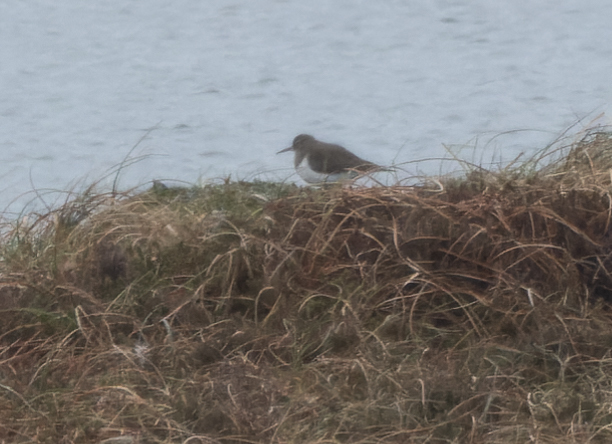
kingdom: Animalia
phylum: Chordata
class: Aves
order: Charadriiformes
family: Scolopacidae
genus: Actitis
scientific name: Actitis hypoleucos
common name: Common sandpiper
